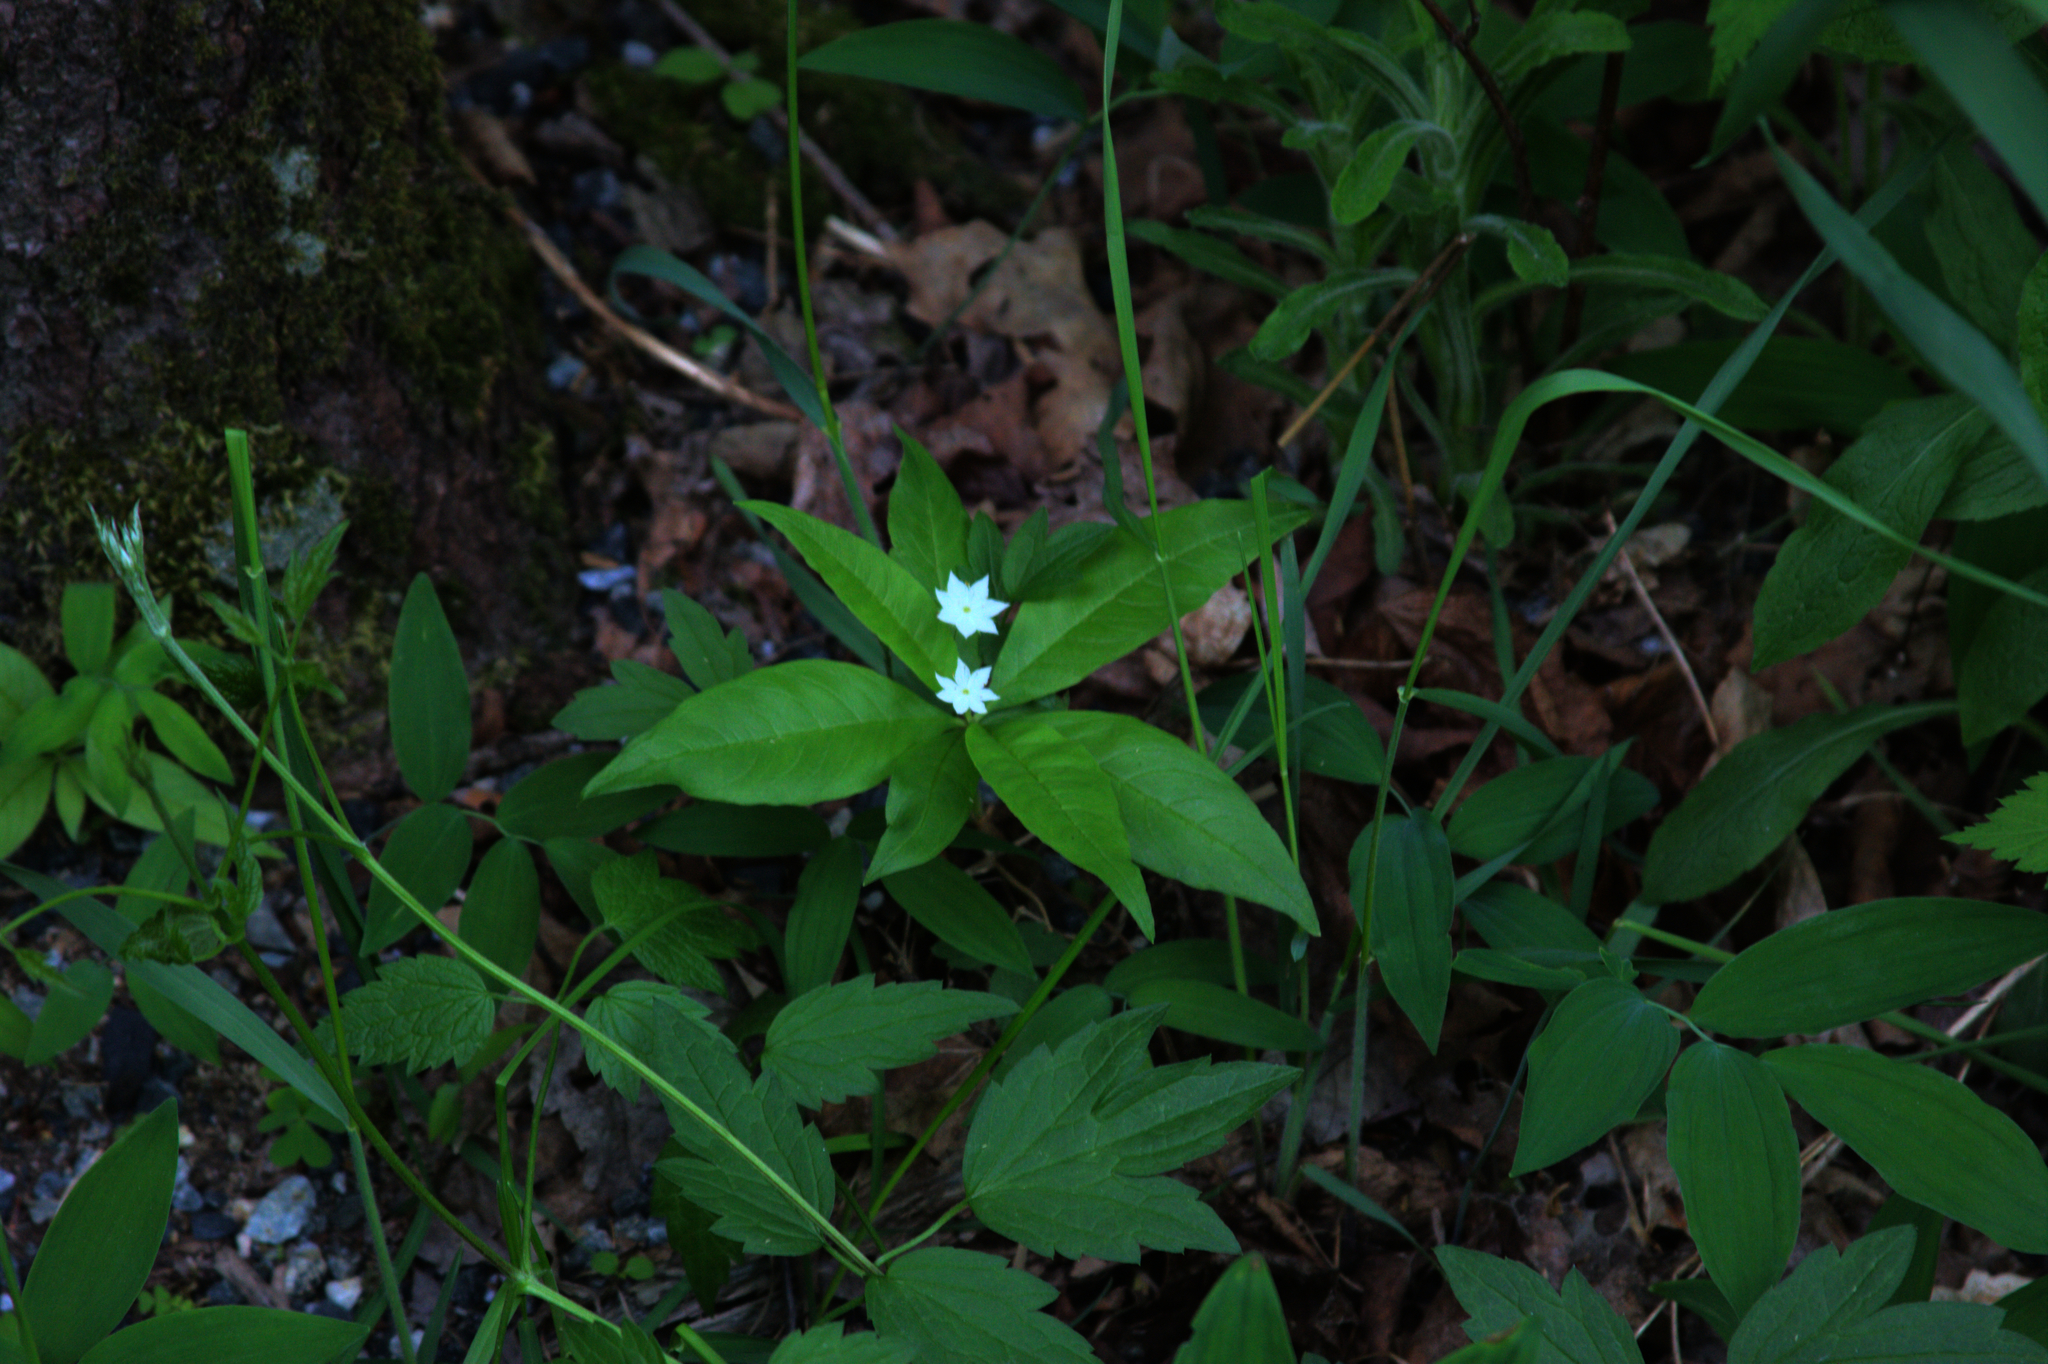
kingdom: Plantae
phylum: Tracheophyta
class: Magnoliopsida
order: Ericales
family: Primulaceae
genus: Lysimachia
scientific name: Lysimachia borealis
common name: American starflower
